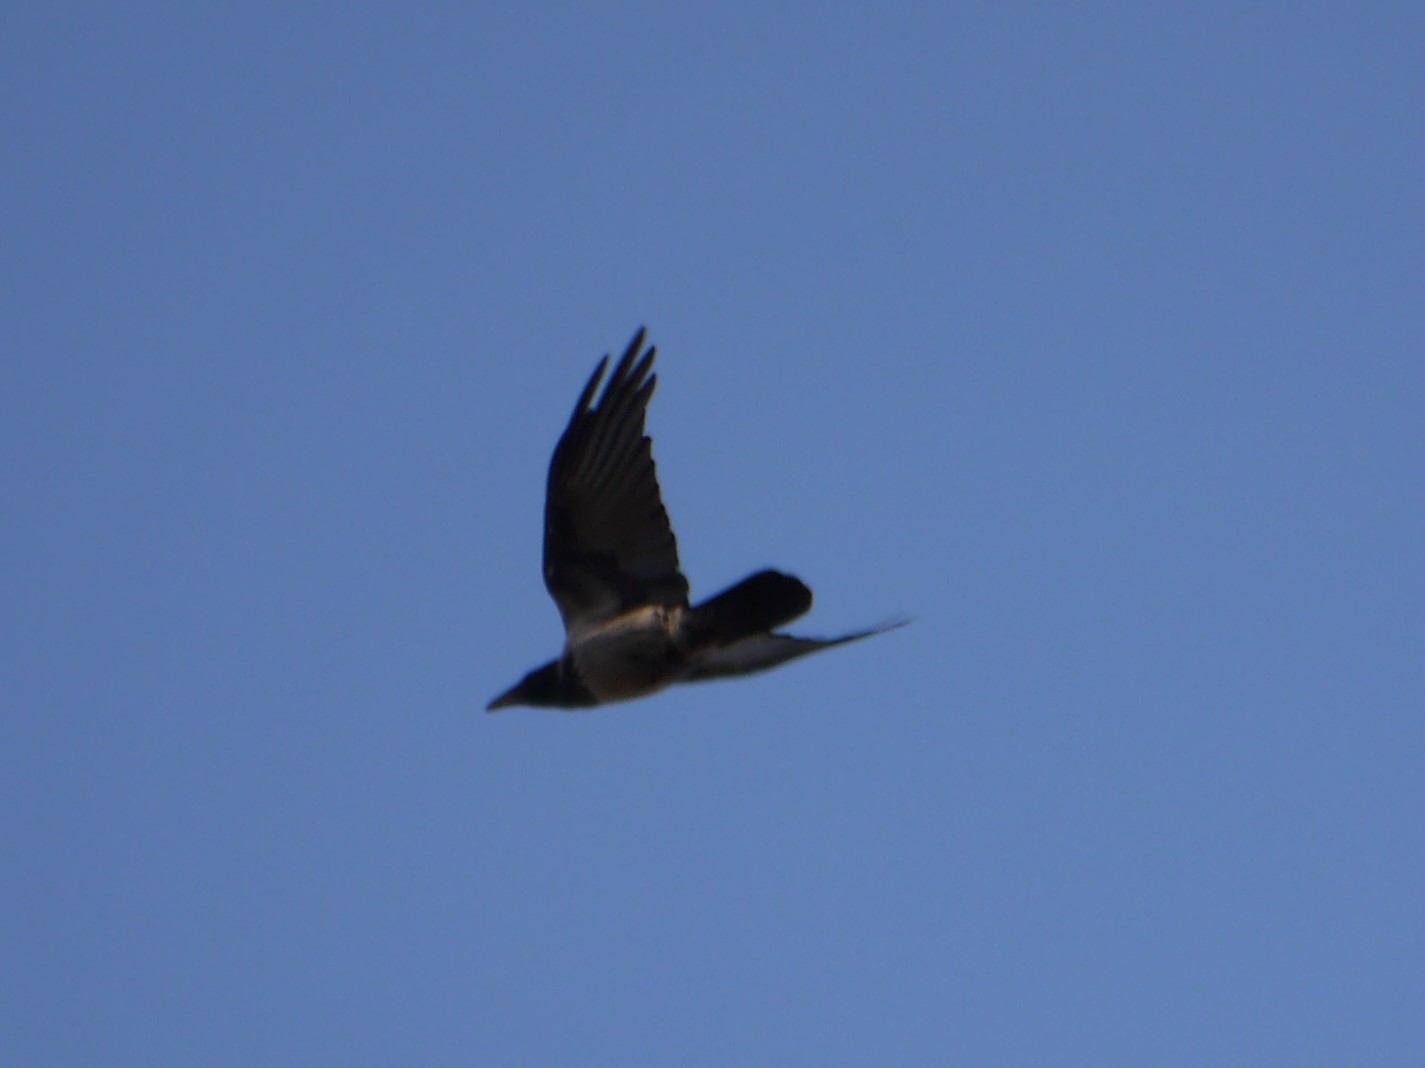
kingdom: Animalia
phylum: Chordata
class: Aves
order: Passeriformes
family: Corvidae
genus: Corvus
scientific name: Corvus cornix
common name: Hooded crow
